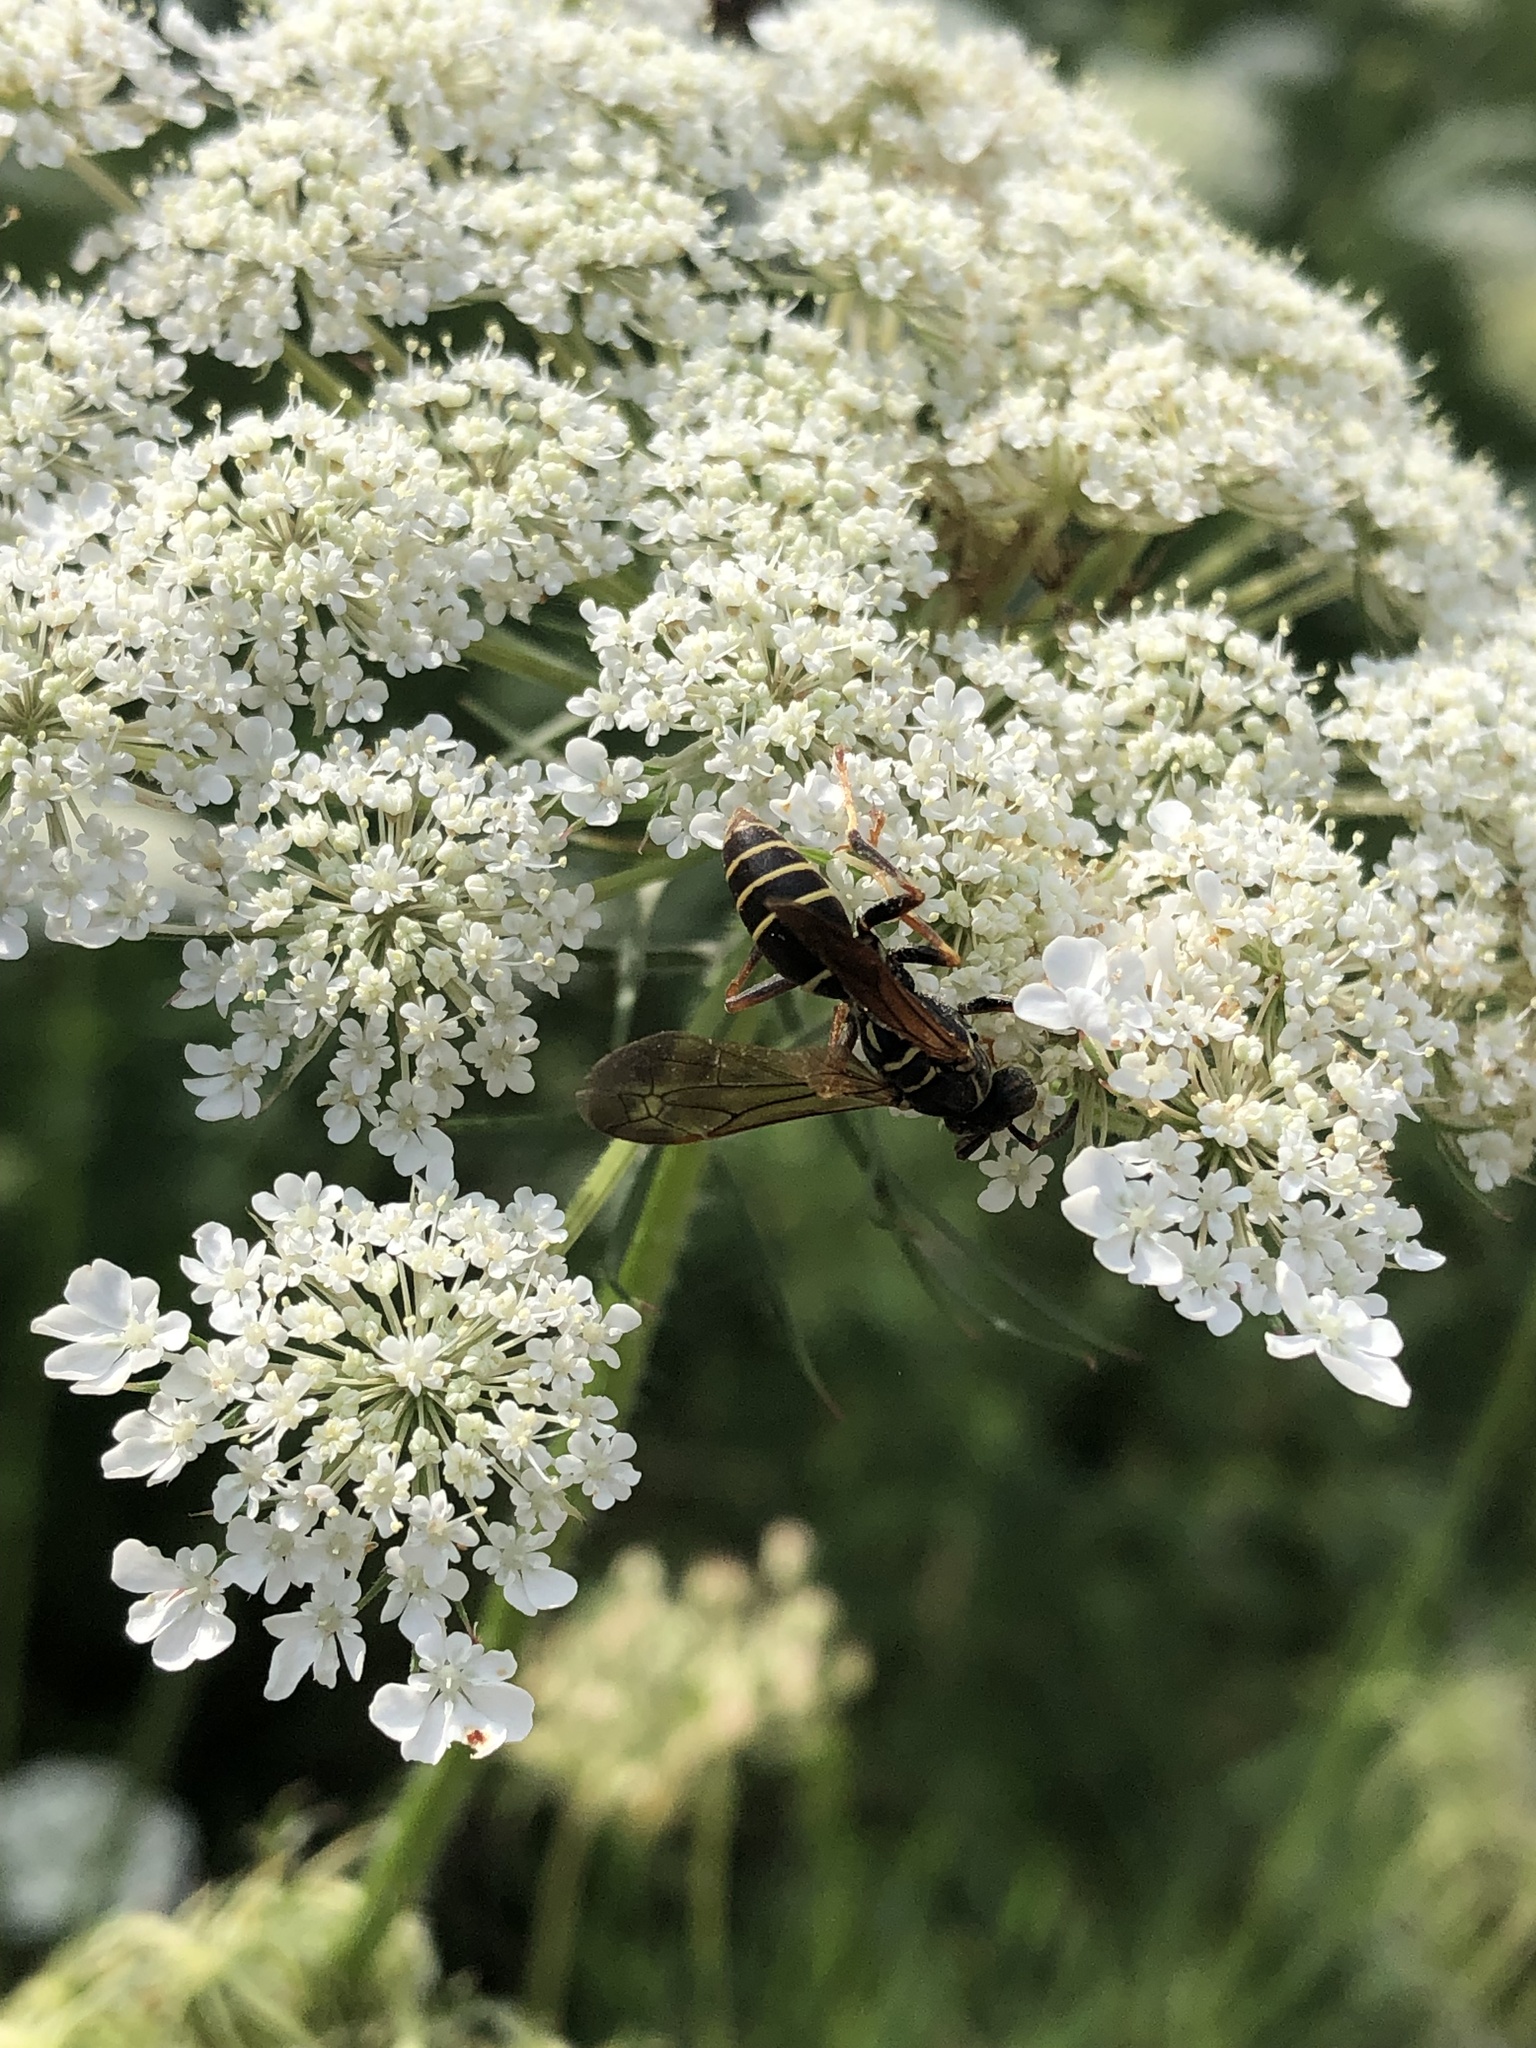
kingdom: Animalia
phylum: Arthropoda
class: Insecta
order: Hymenoptera
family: Eumenidae
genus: Polistes
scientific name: Polistes fuscatus
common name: Dark paper wasp
